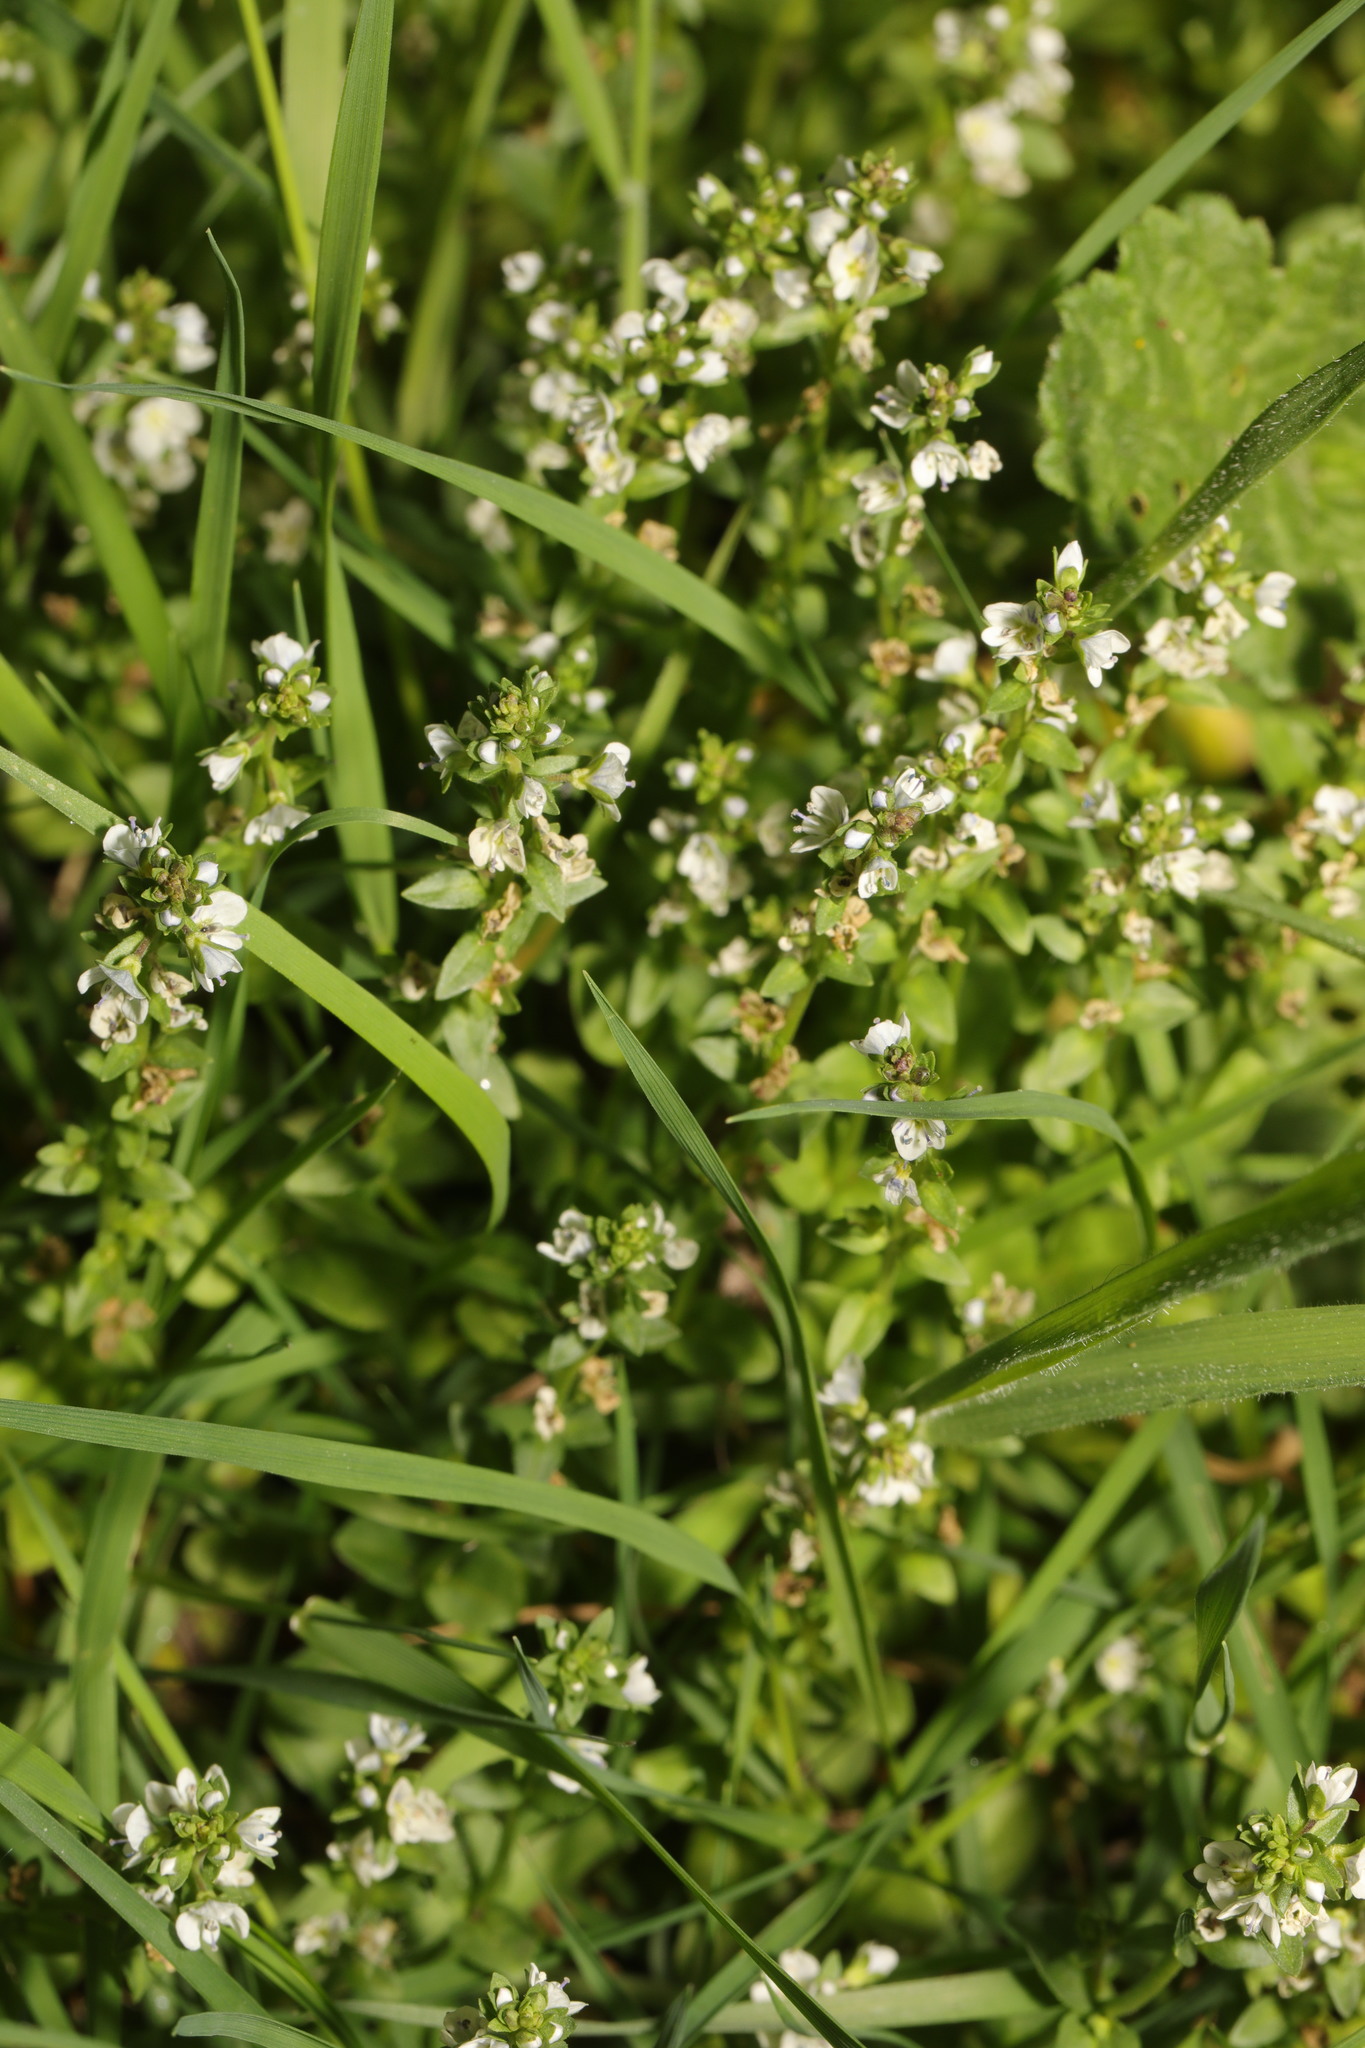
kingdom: Plantae
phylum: Tracheophyta
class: Magnoliopsida
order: Lamiales
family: Plantaginaceae
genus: Veronica
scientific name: Veronica serpyllifolia
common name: Thyme-leaved speedwell
